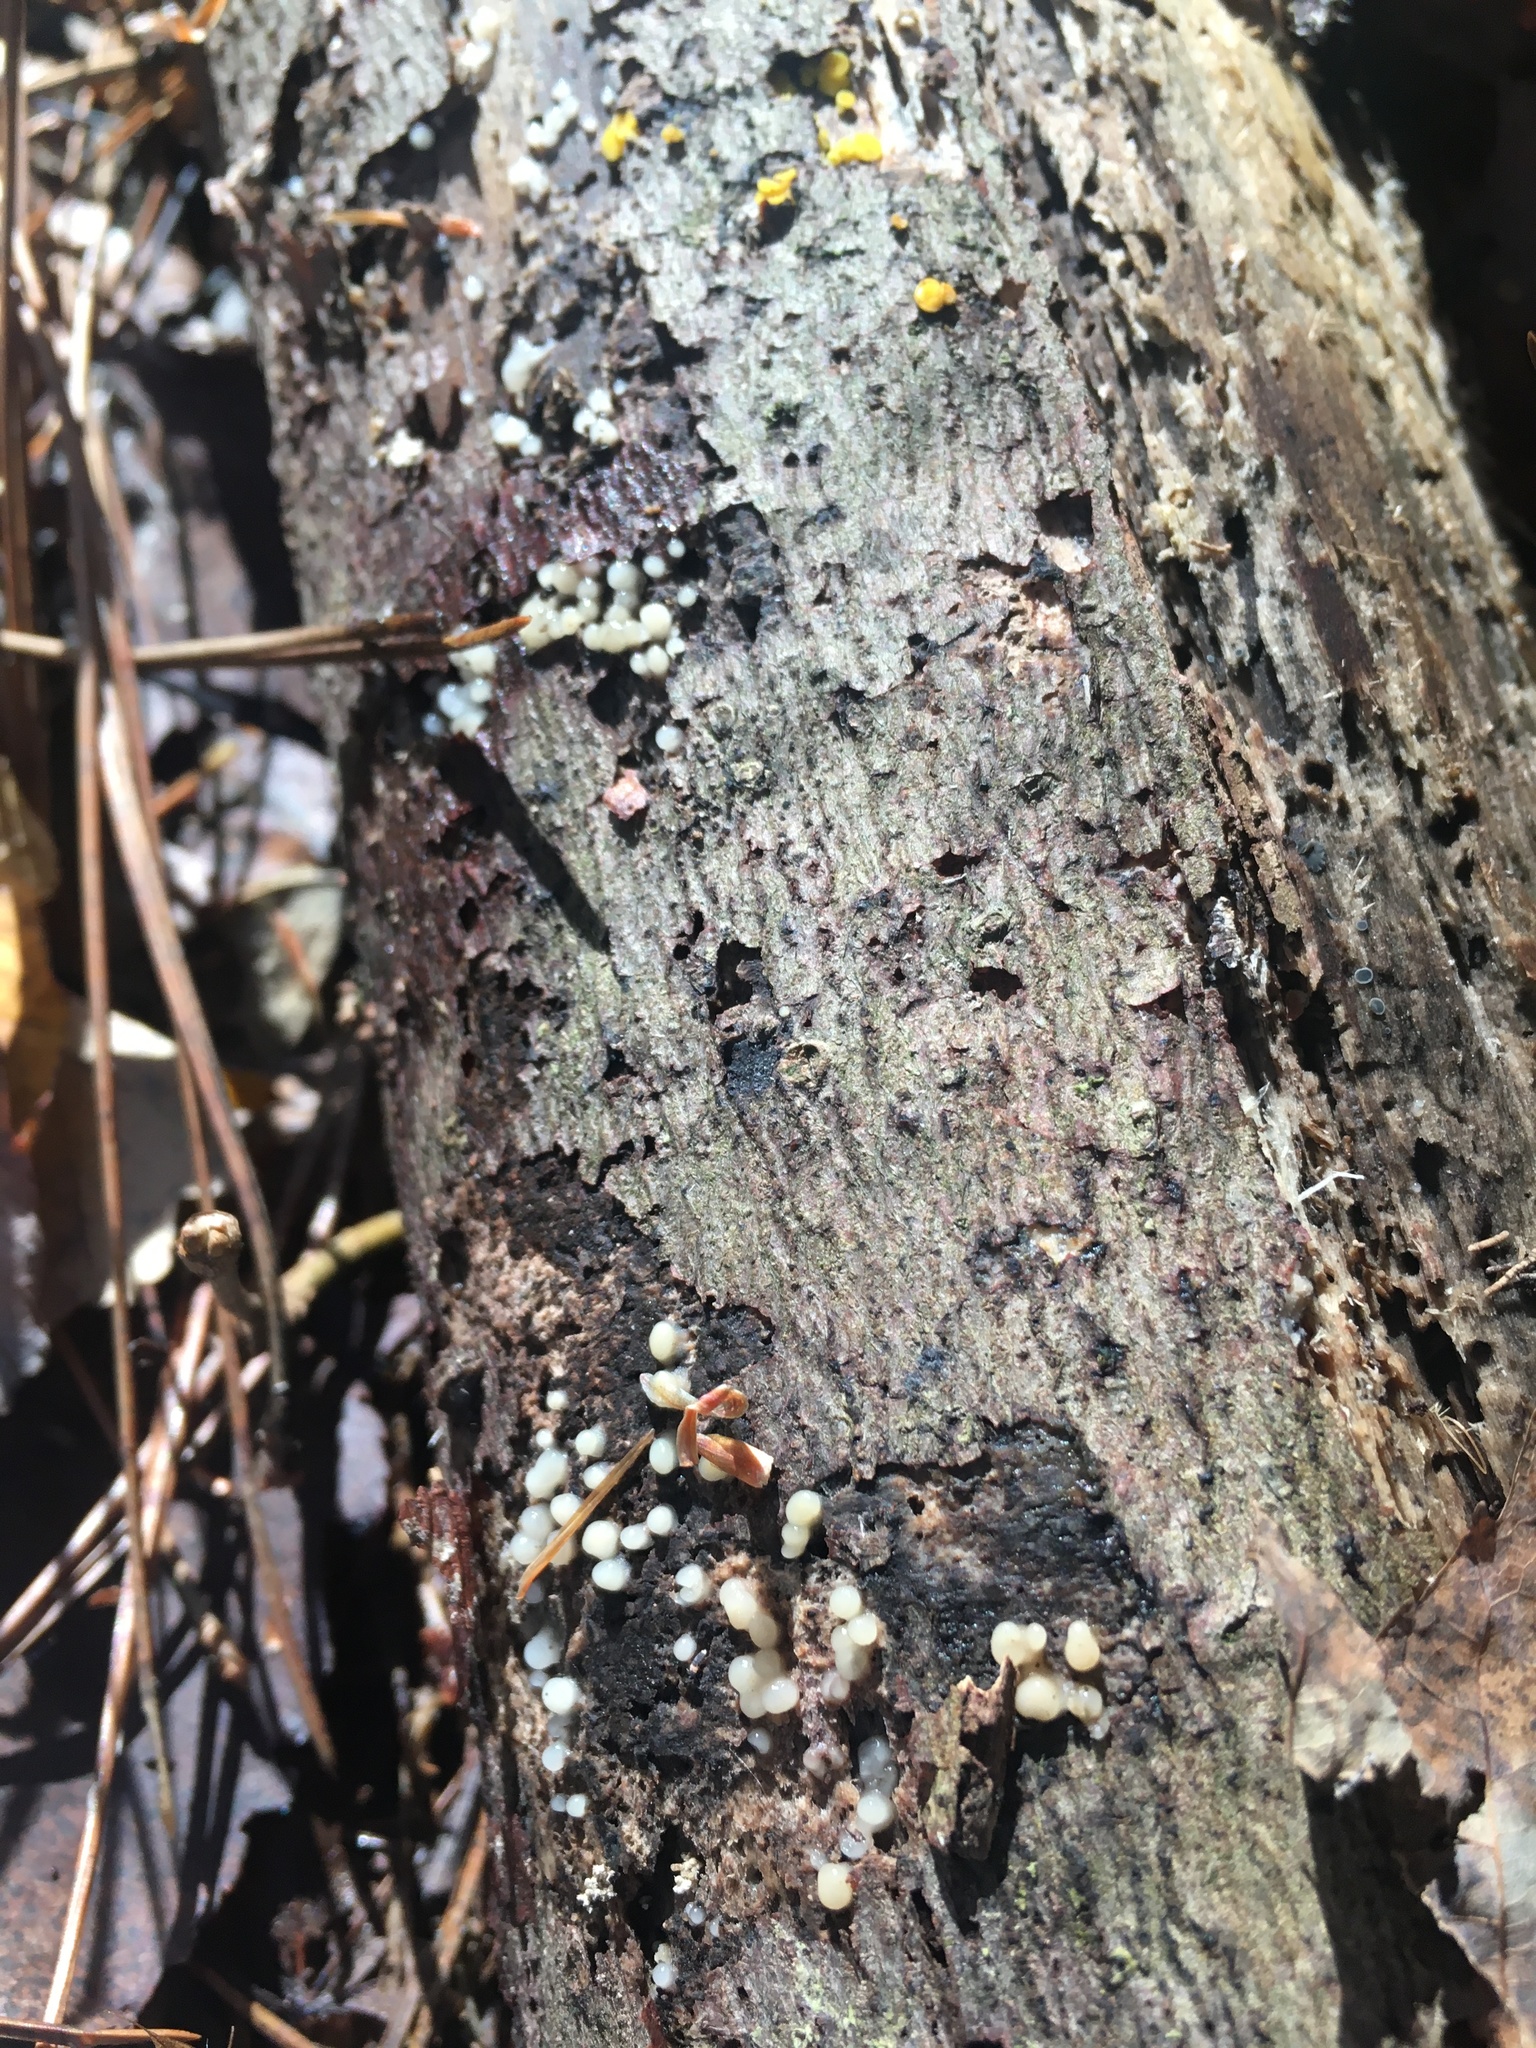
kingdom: Fungi
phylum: Basidiomycota
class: Atractiellomycetes
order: Atractiellales
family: Phleogenaceae
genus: Helicogloea
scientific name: Helicogloea compressa
